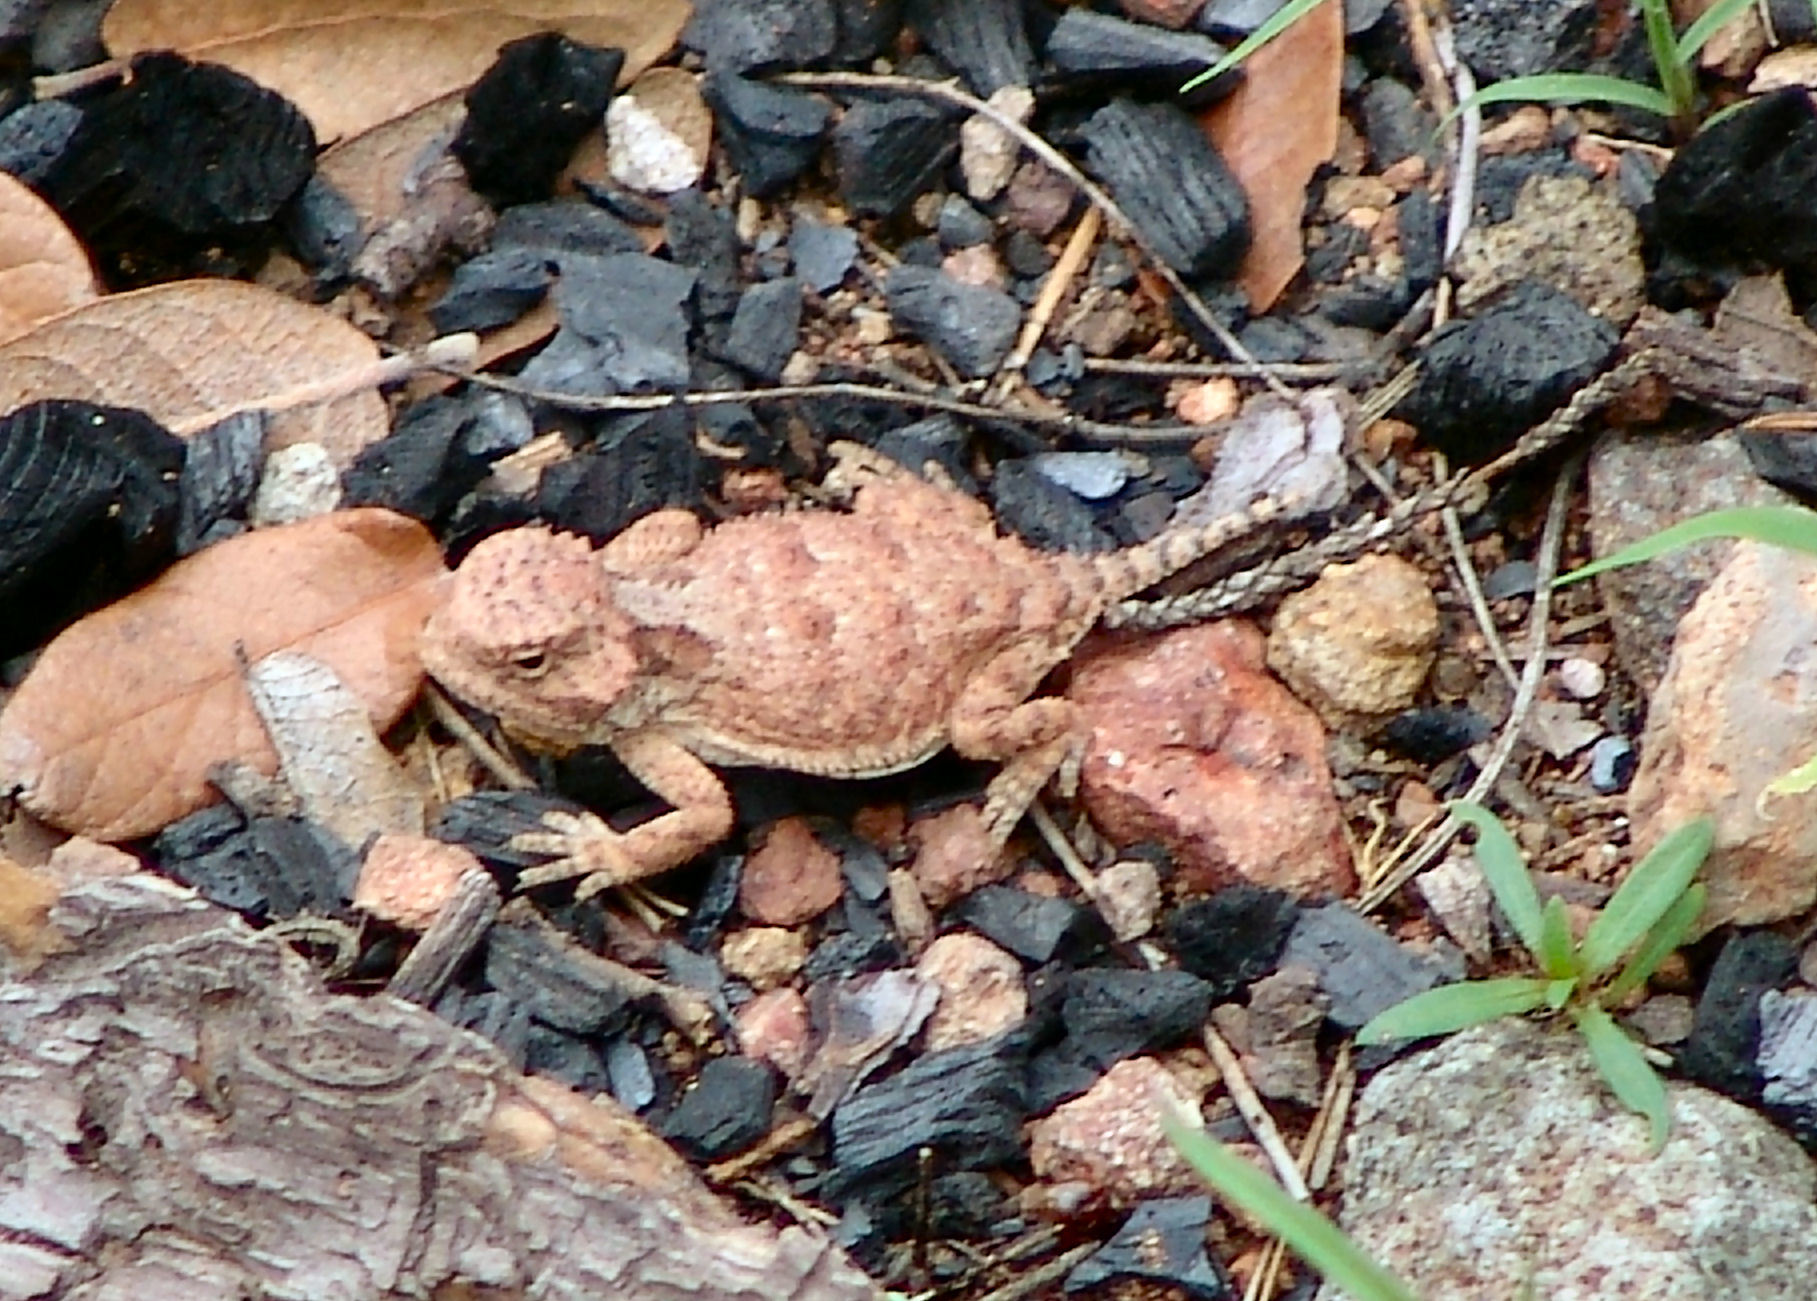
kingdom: Animalia
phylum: Chordata
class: Squamata
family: Phrynosomatidae
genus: Phrynosoma
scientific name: Phrynosoma hernandesi
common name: Greater short-horned lizard
